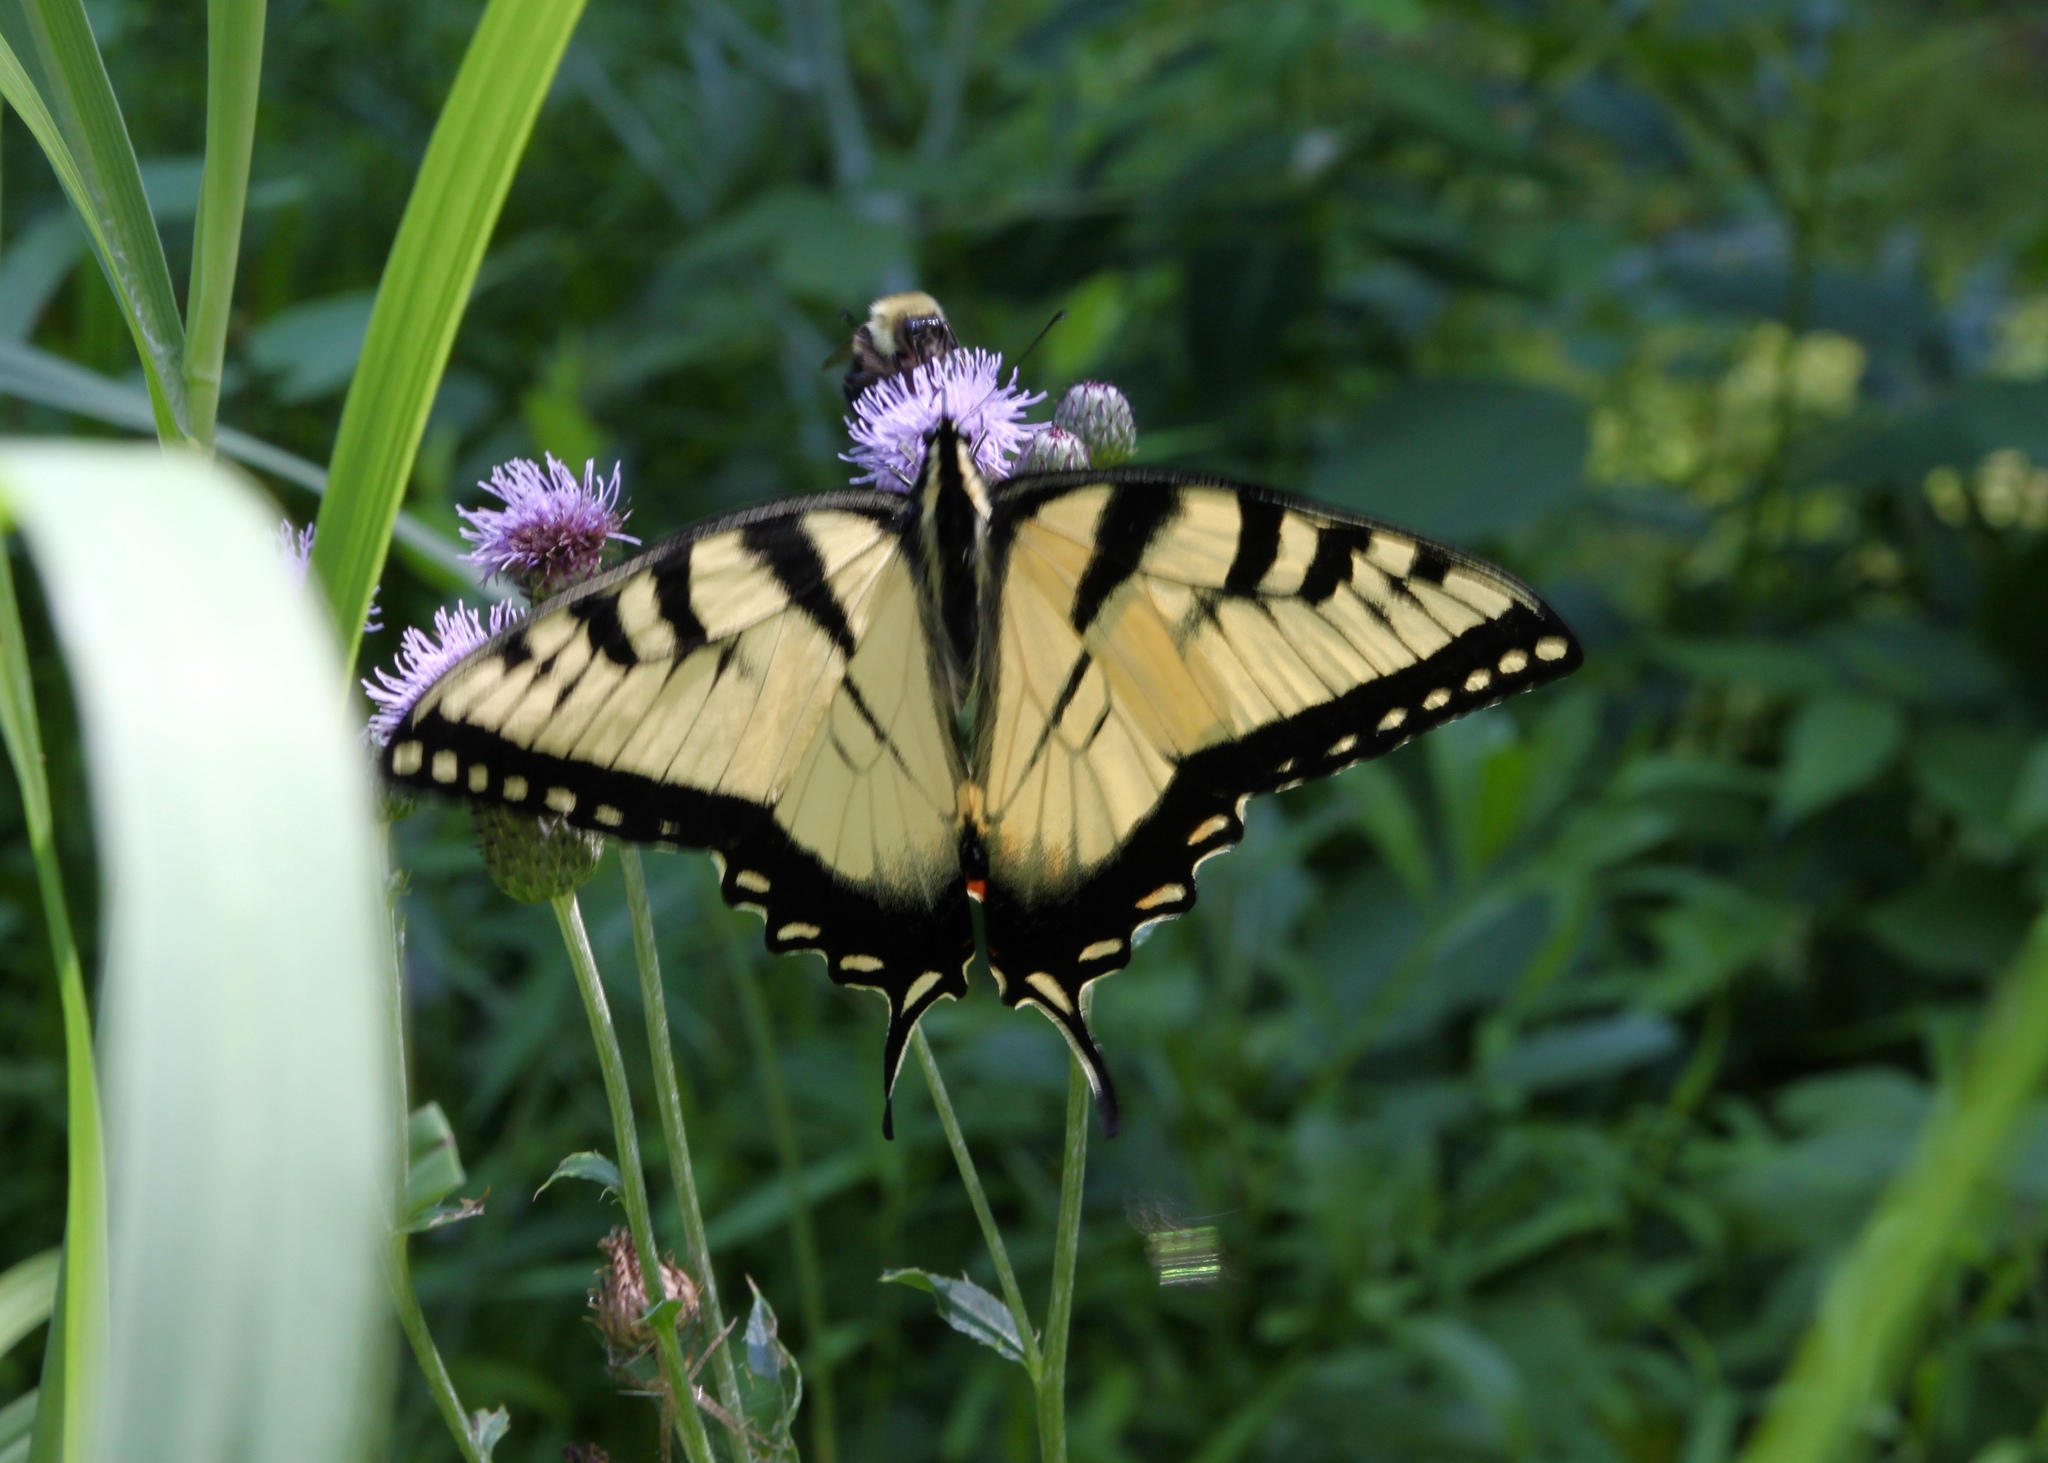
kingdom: Animalia
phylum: Arthropoda
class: Insecta
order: Lepidoptera
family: Papilionidae
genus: Papilio
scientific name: Papilio glaucus
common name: Tiger swallowtail
